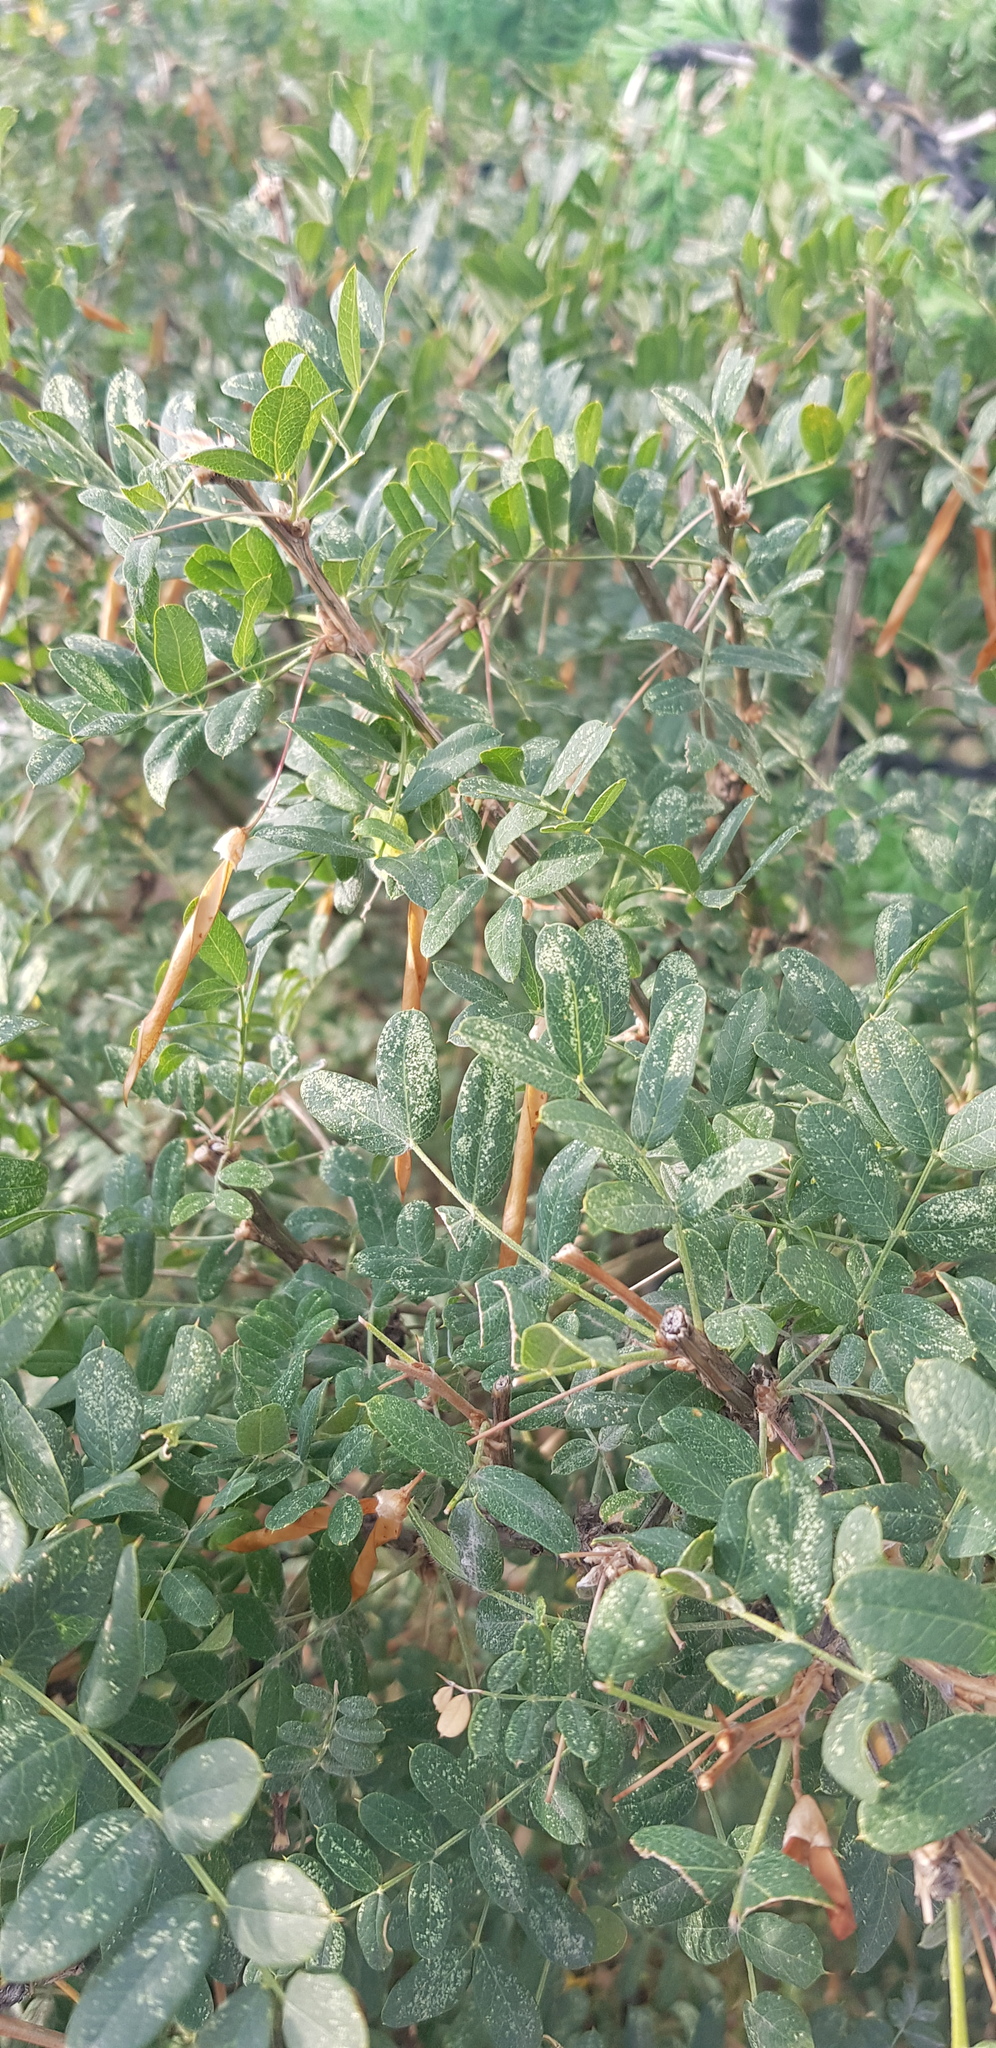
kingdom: Plantae
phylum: Tracheophyta
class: Magnoliopsida
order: Fabales
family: Fabaceae
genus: Caragana
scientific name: Caragana arborescens
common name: Siberian peashrub
